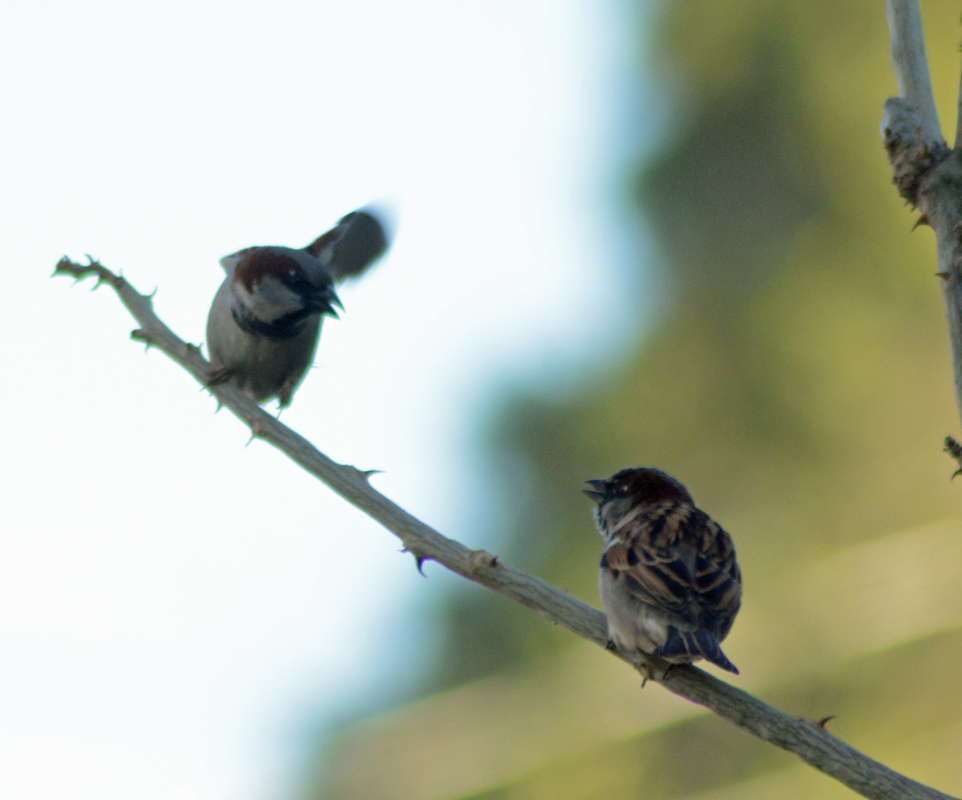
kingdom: Animalia
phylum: Chordata
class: Aves
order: Passeriformes
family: Passeridae
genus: Passer
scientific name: Passer domesticus
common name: House sparrow
